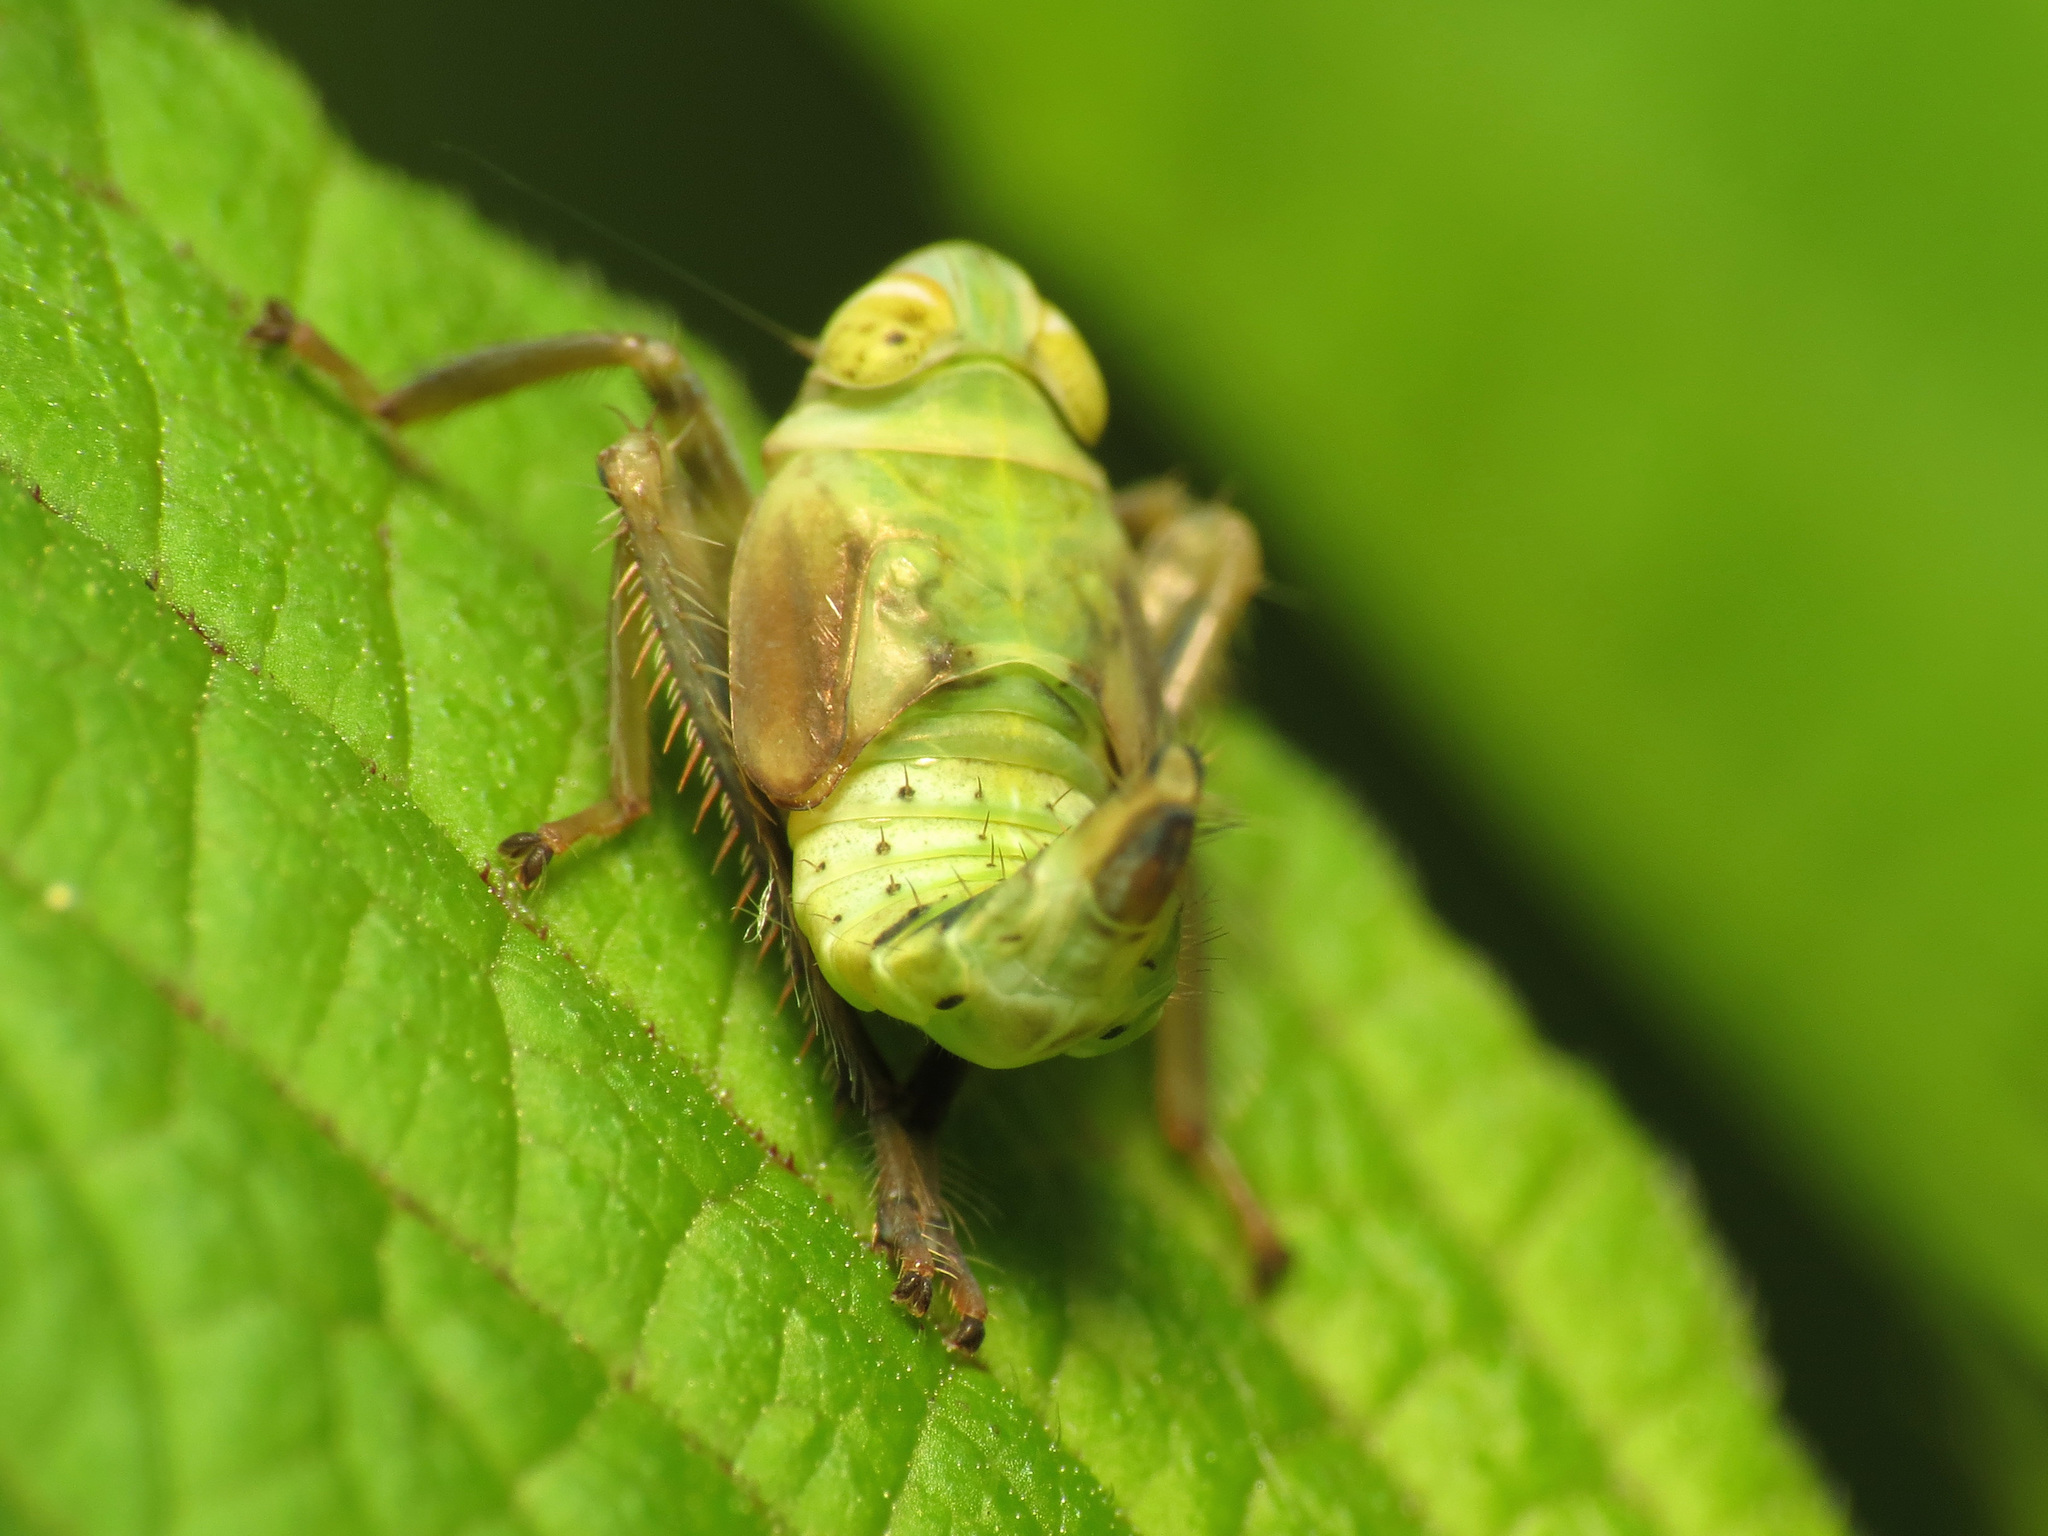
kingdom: Animalia
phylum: Arthropoda
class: Insecta
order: Hemiptera
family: Cicadellidae
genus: Jikradia
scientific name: Jikradia olitoria
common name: Coppery leafhopper
